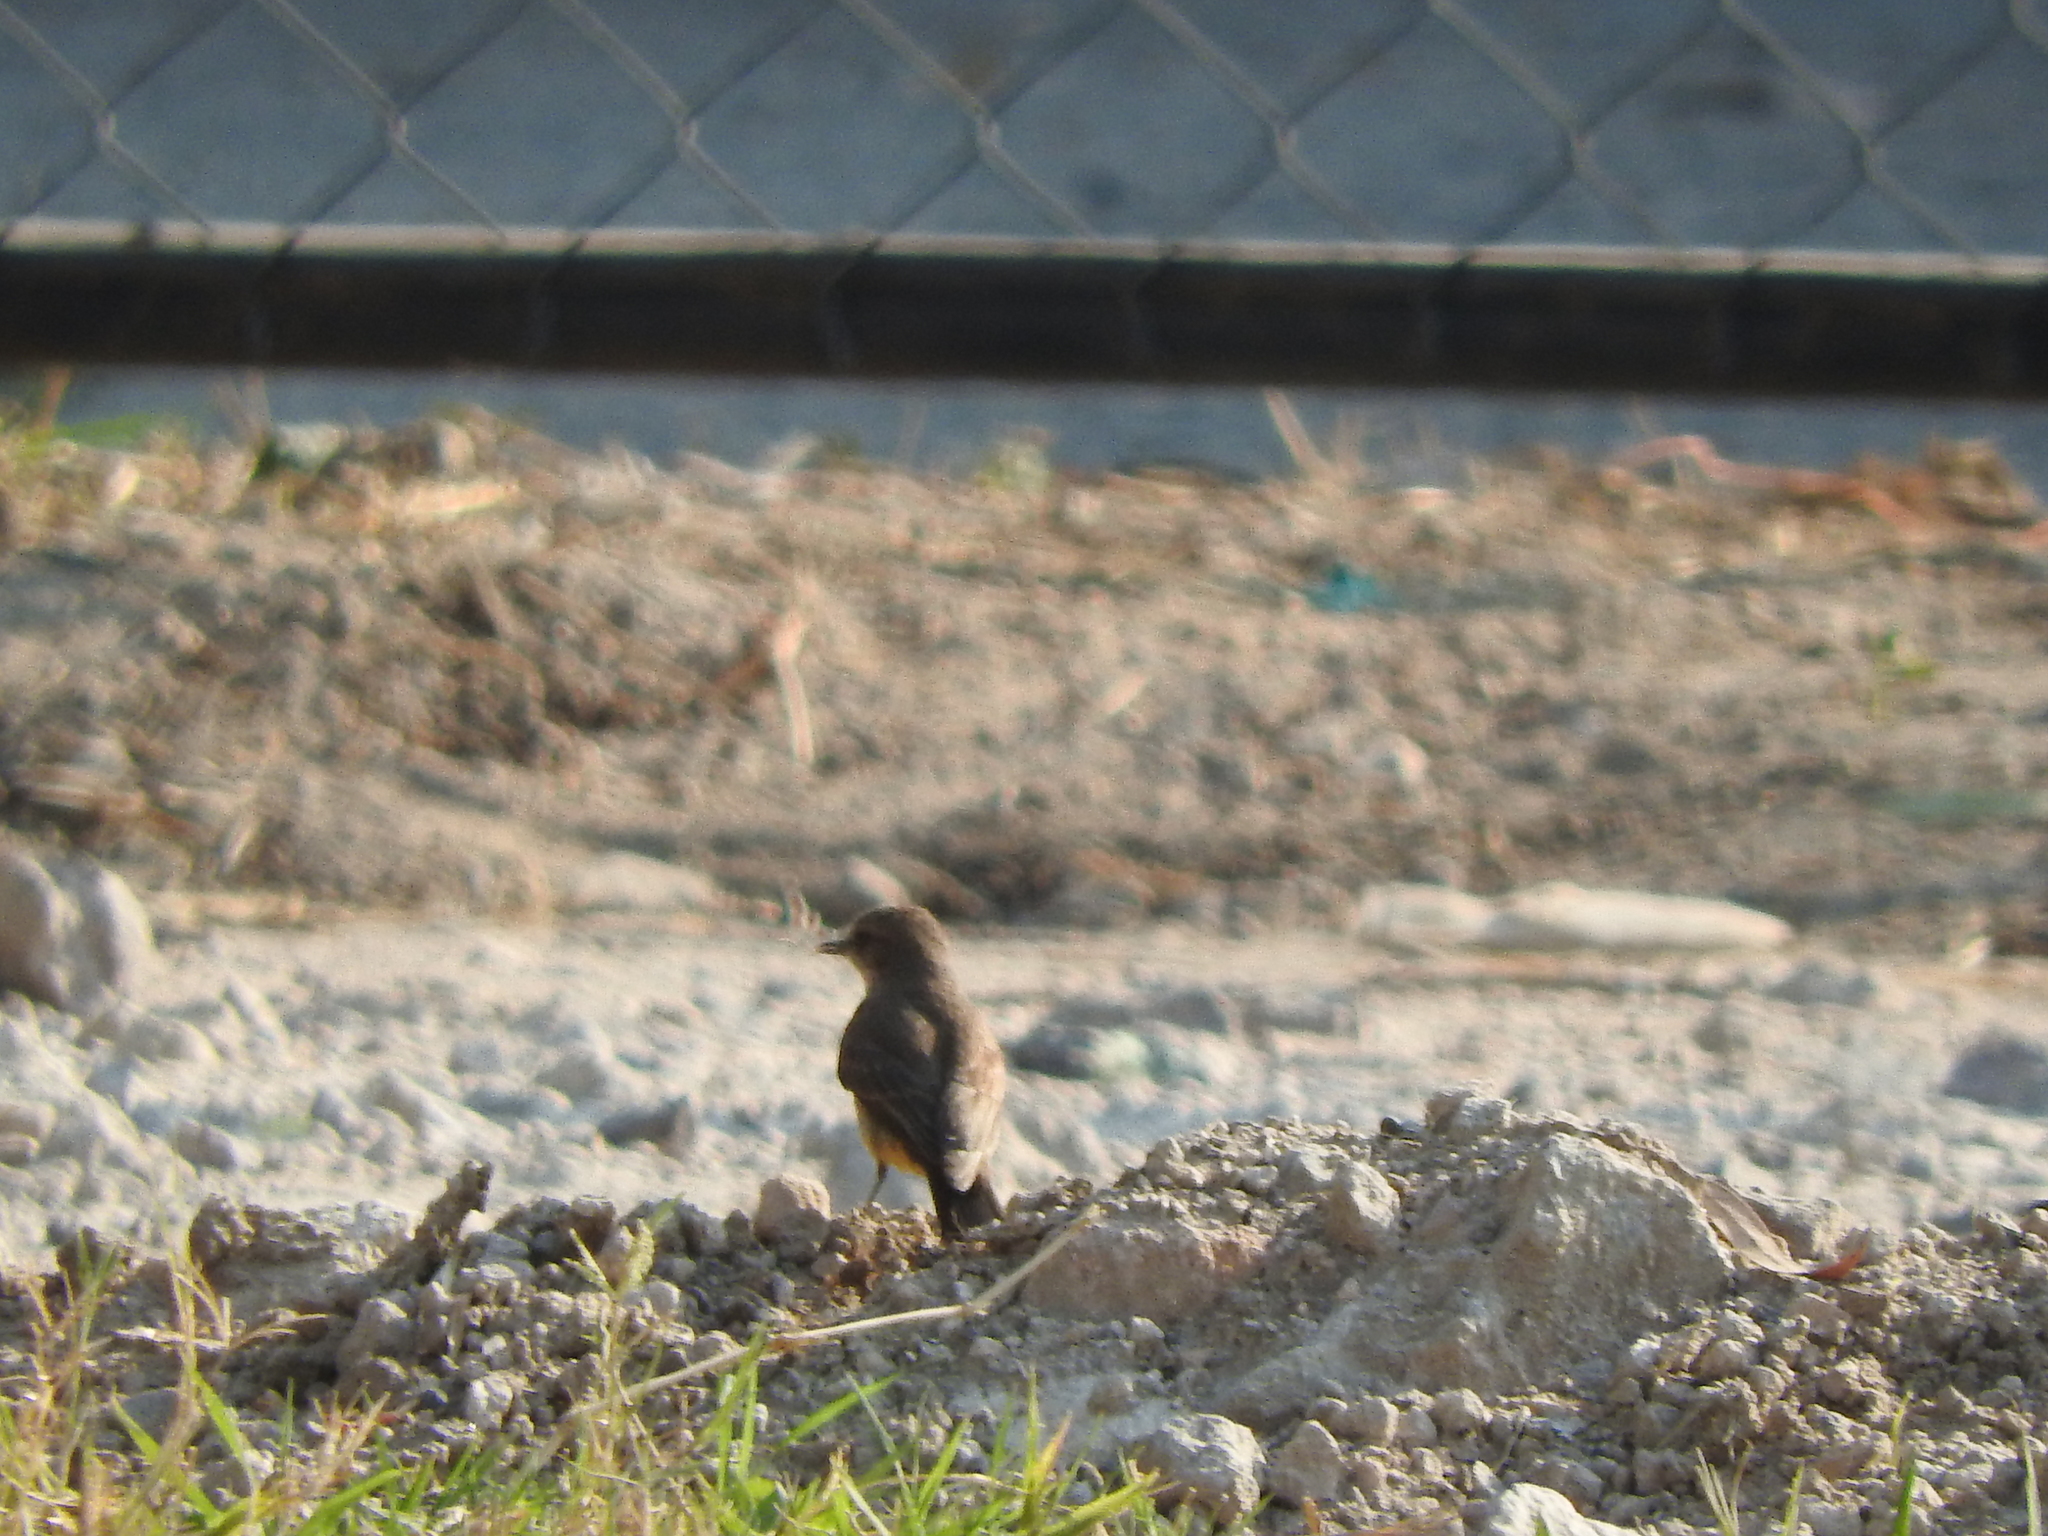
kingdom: Animalia
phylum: Chordata
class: Aves
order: Passeriformes
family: Tyrannidae
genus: Pyrocephalus
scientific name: Pyrocephalus rubinus
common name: Vermilion flycatcher
